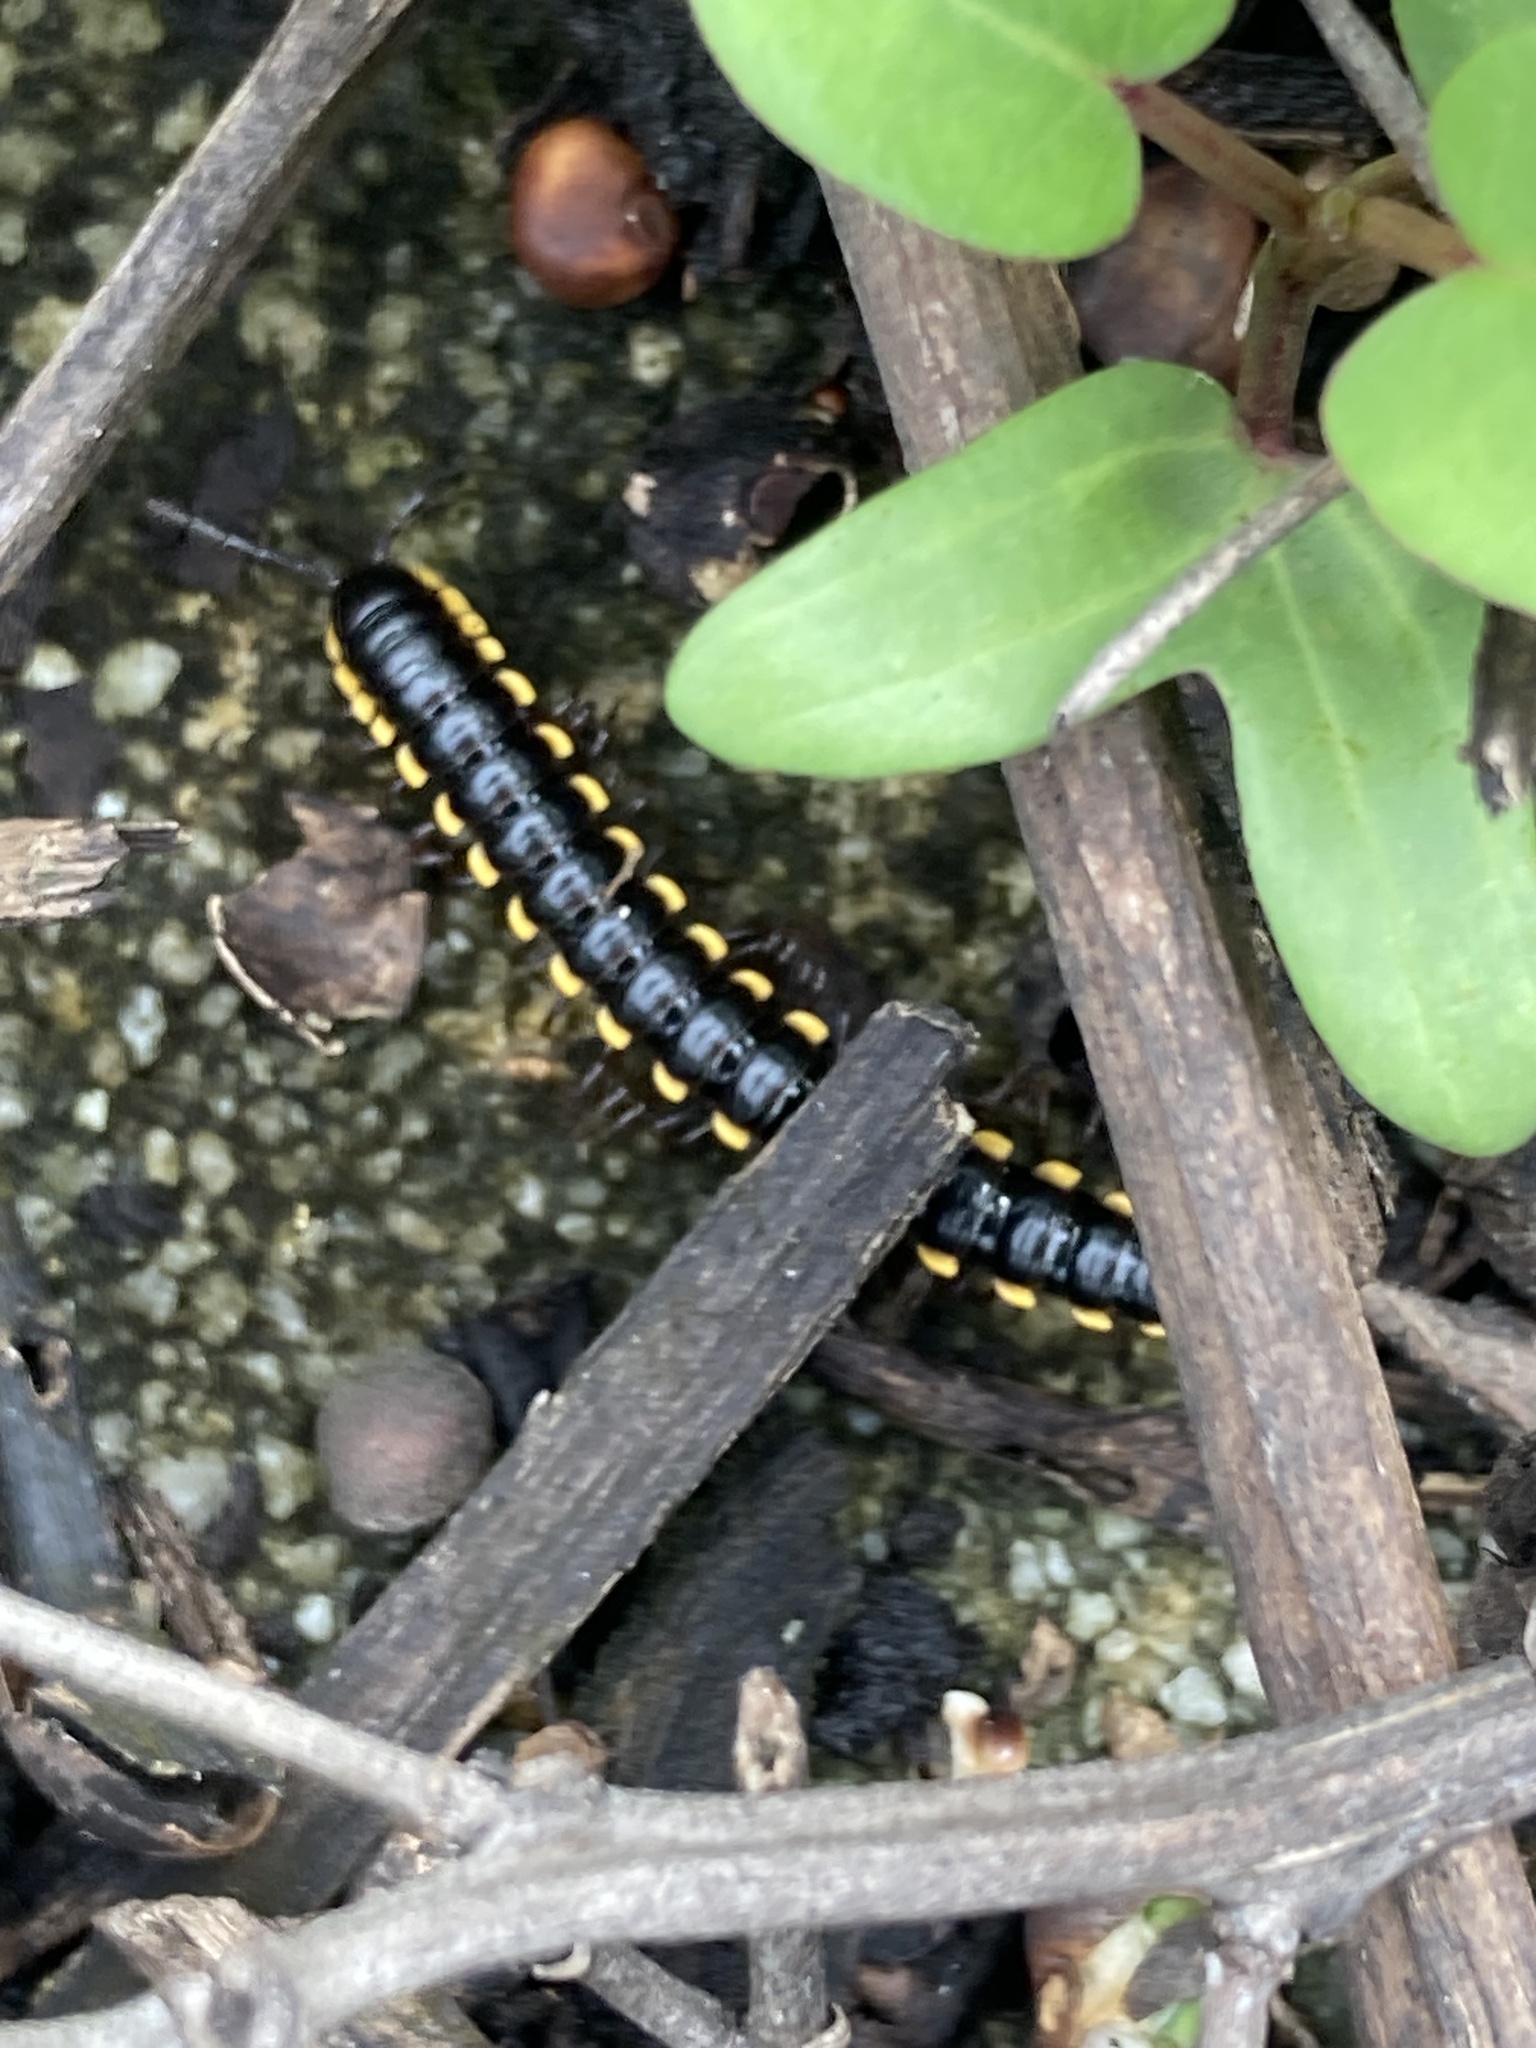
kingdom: Animalia
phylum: Arthropoda
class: Diplopoda
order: Polydesmida
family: Paradoxosomatidae
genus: Anoplodesmus
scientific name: Anoplodesmus saussurii
